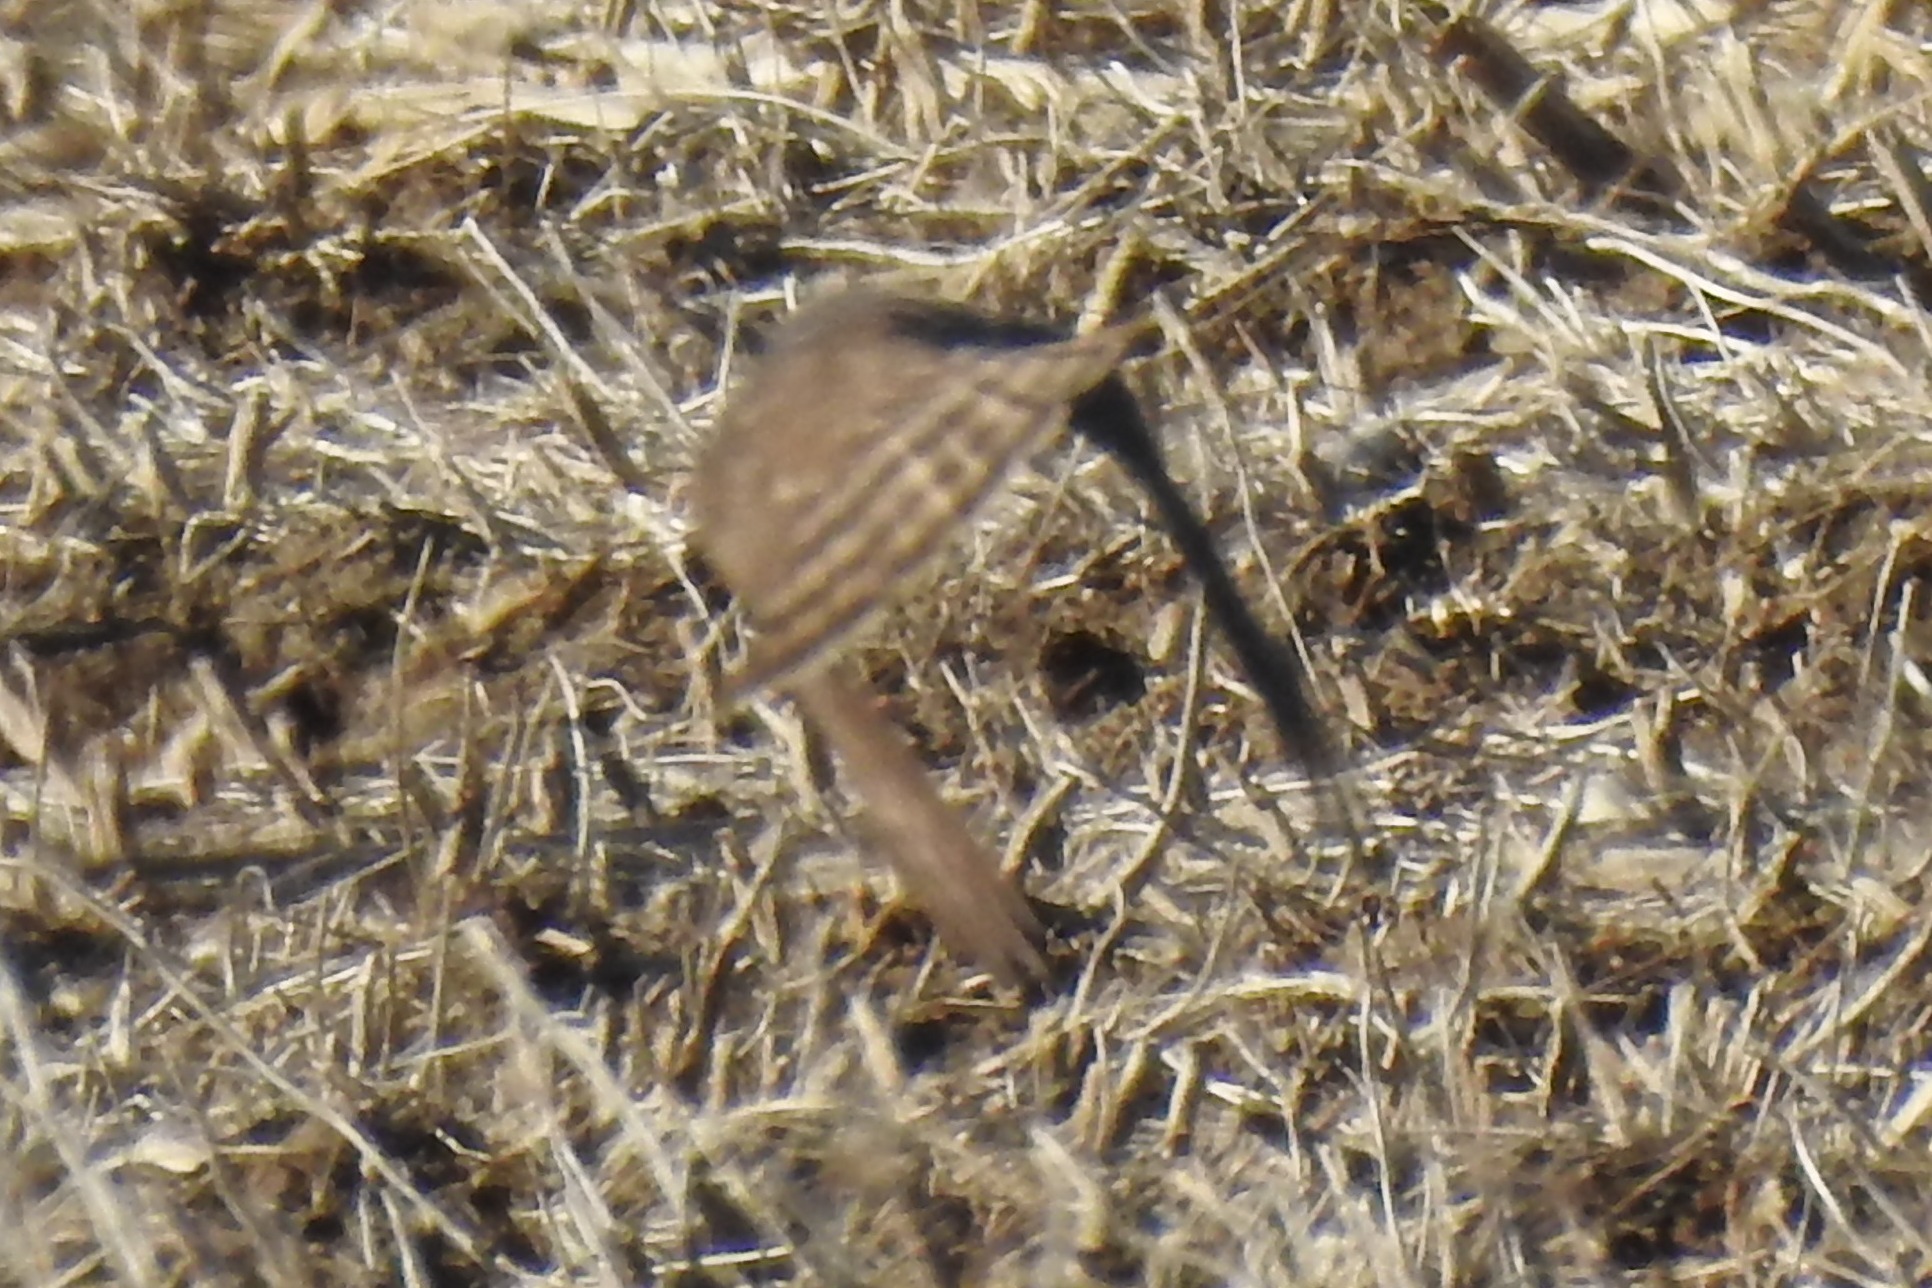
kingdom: Animalia
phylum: Chordata
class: Aves
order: Accipitriformes
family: Accipitridae
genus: Accipiter
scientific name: Accipiter striatus
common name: Sharp-shinned hawk
